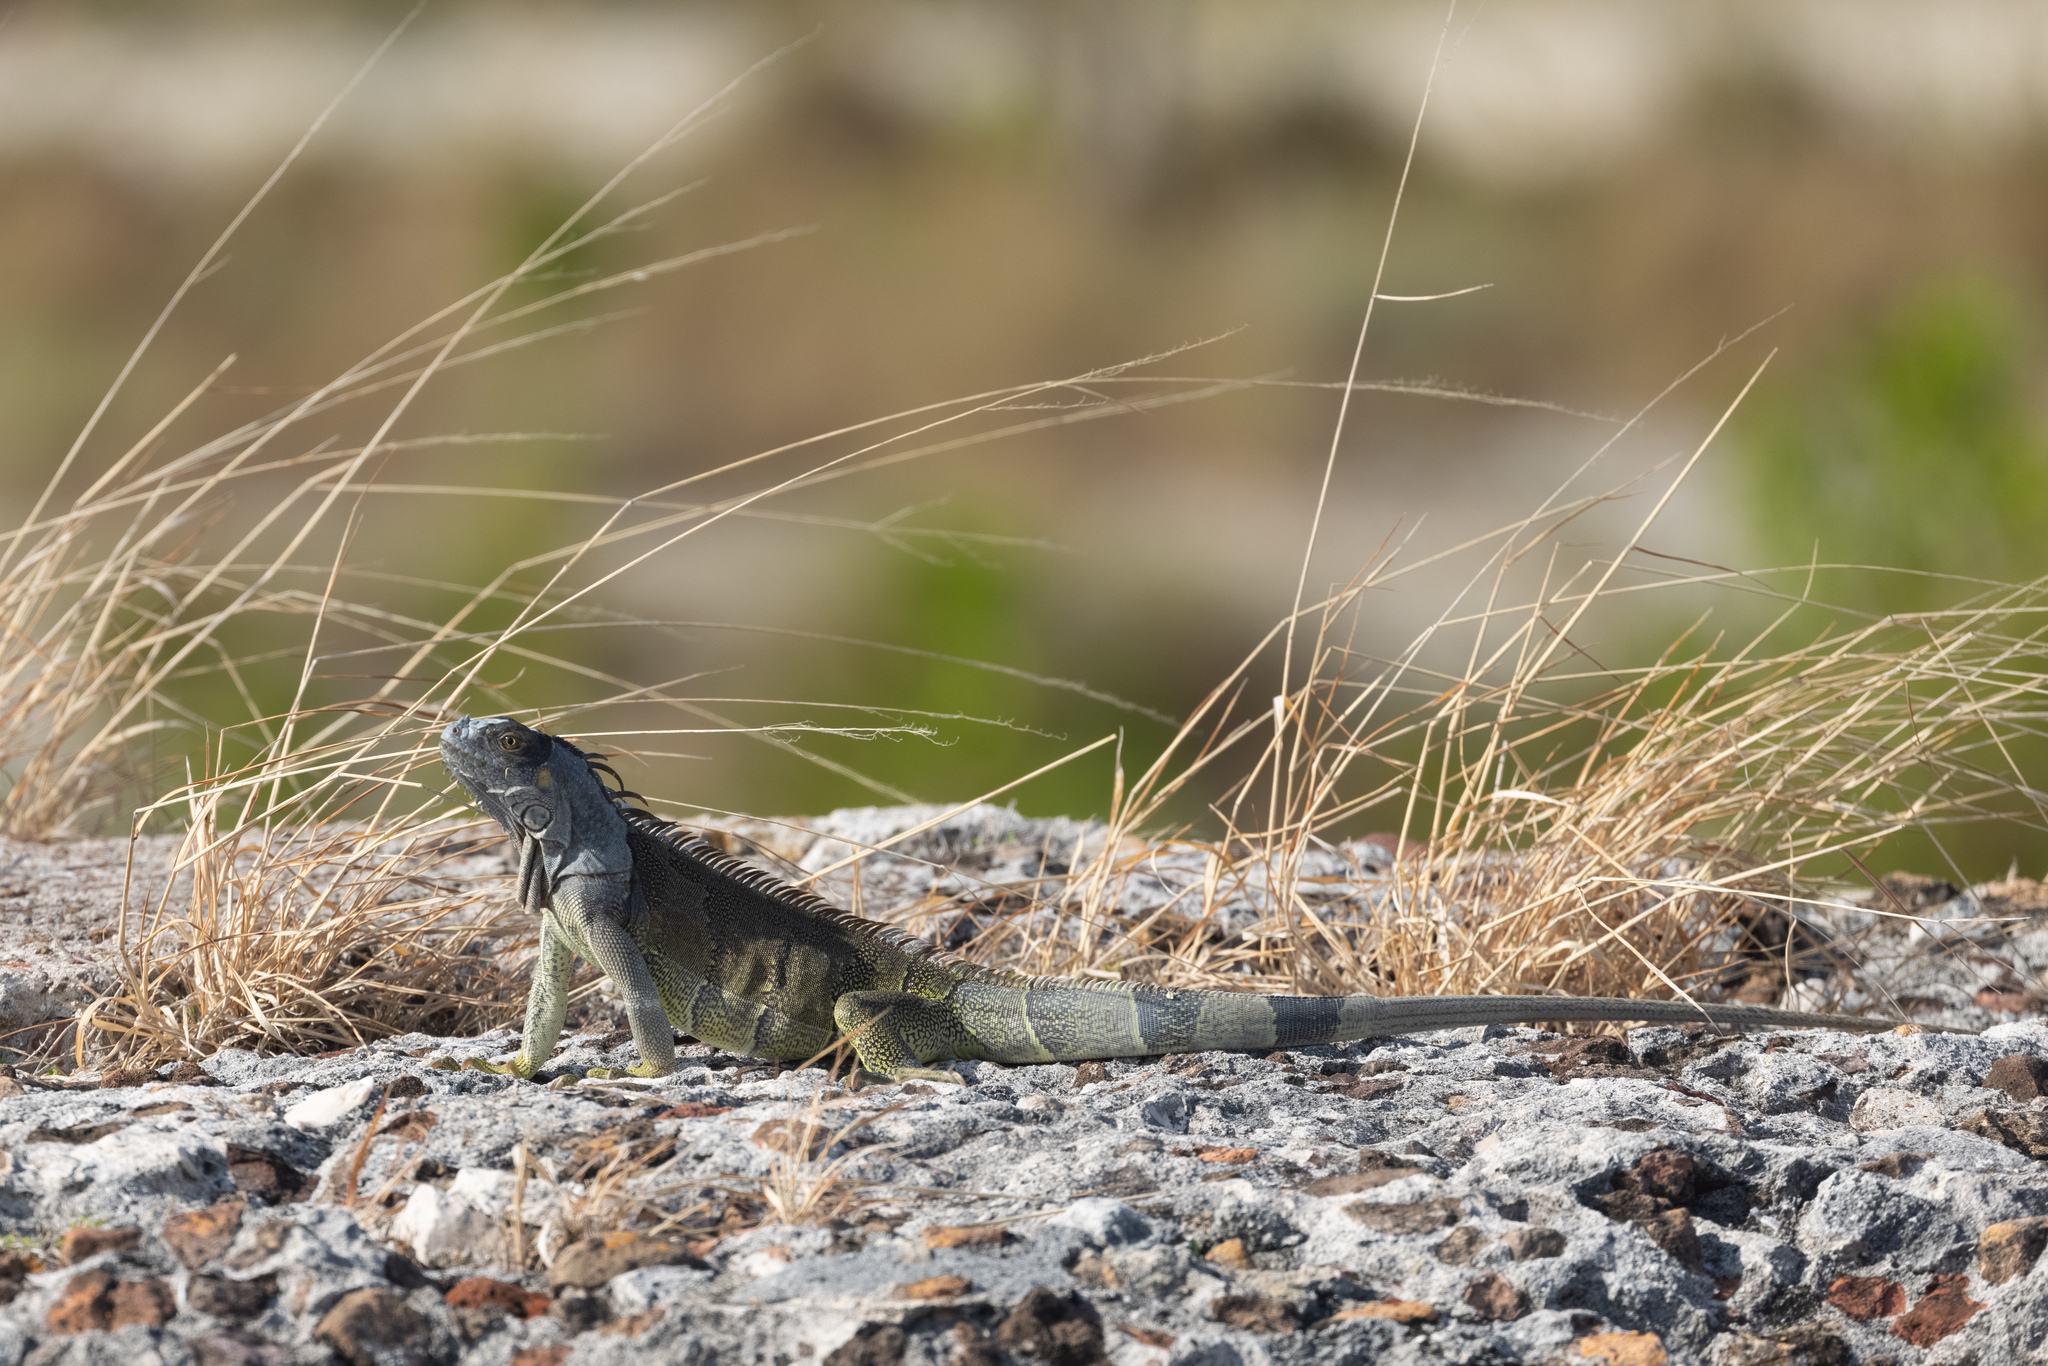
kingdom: Animalia
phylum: Chordata
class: Squamata
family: Iguanidae
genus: Iguana
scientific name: Iguana iguana
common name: Green iguana
